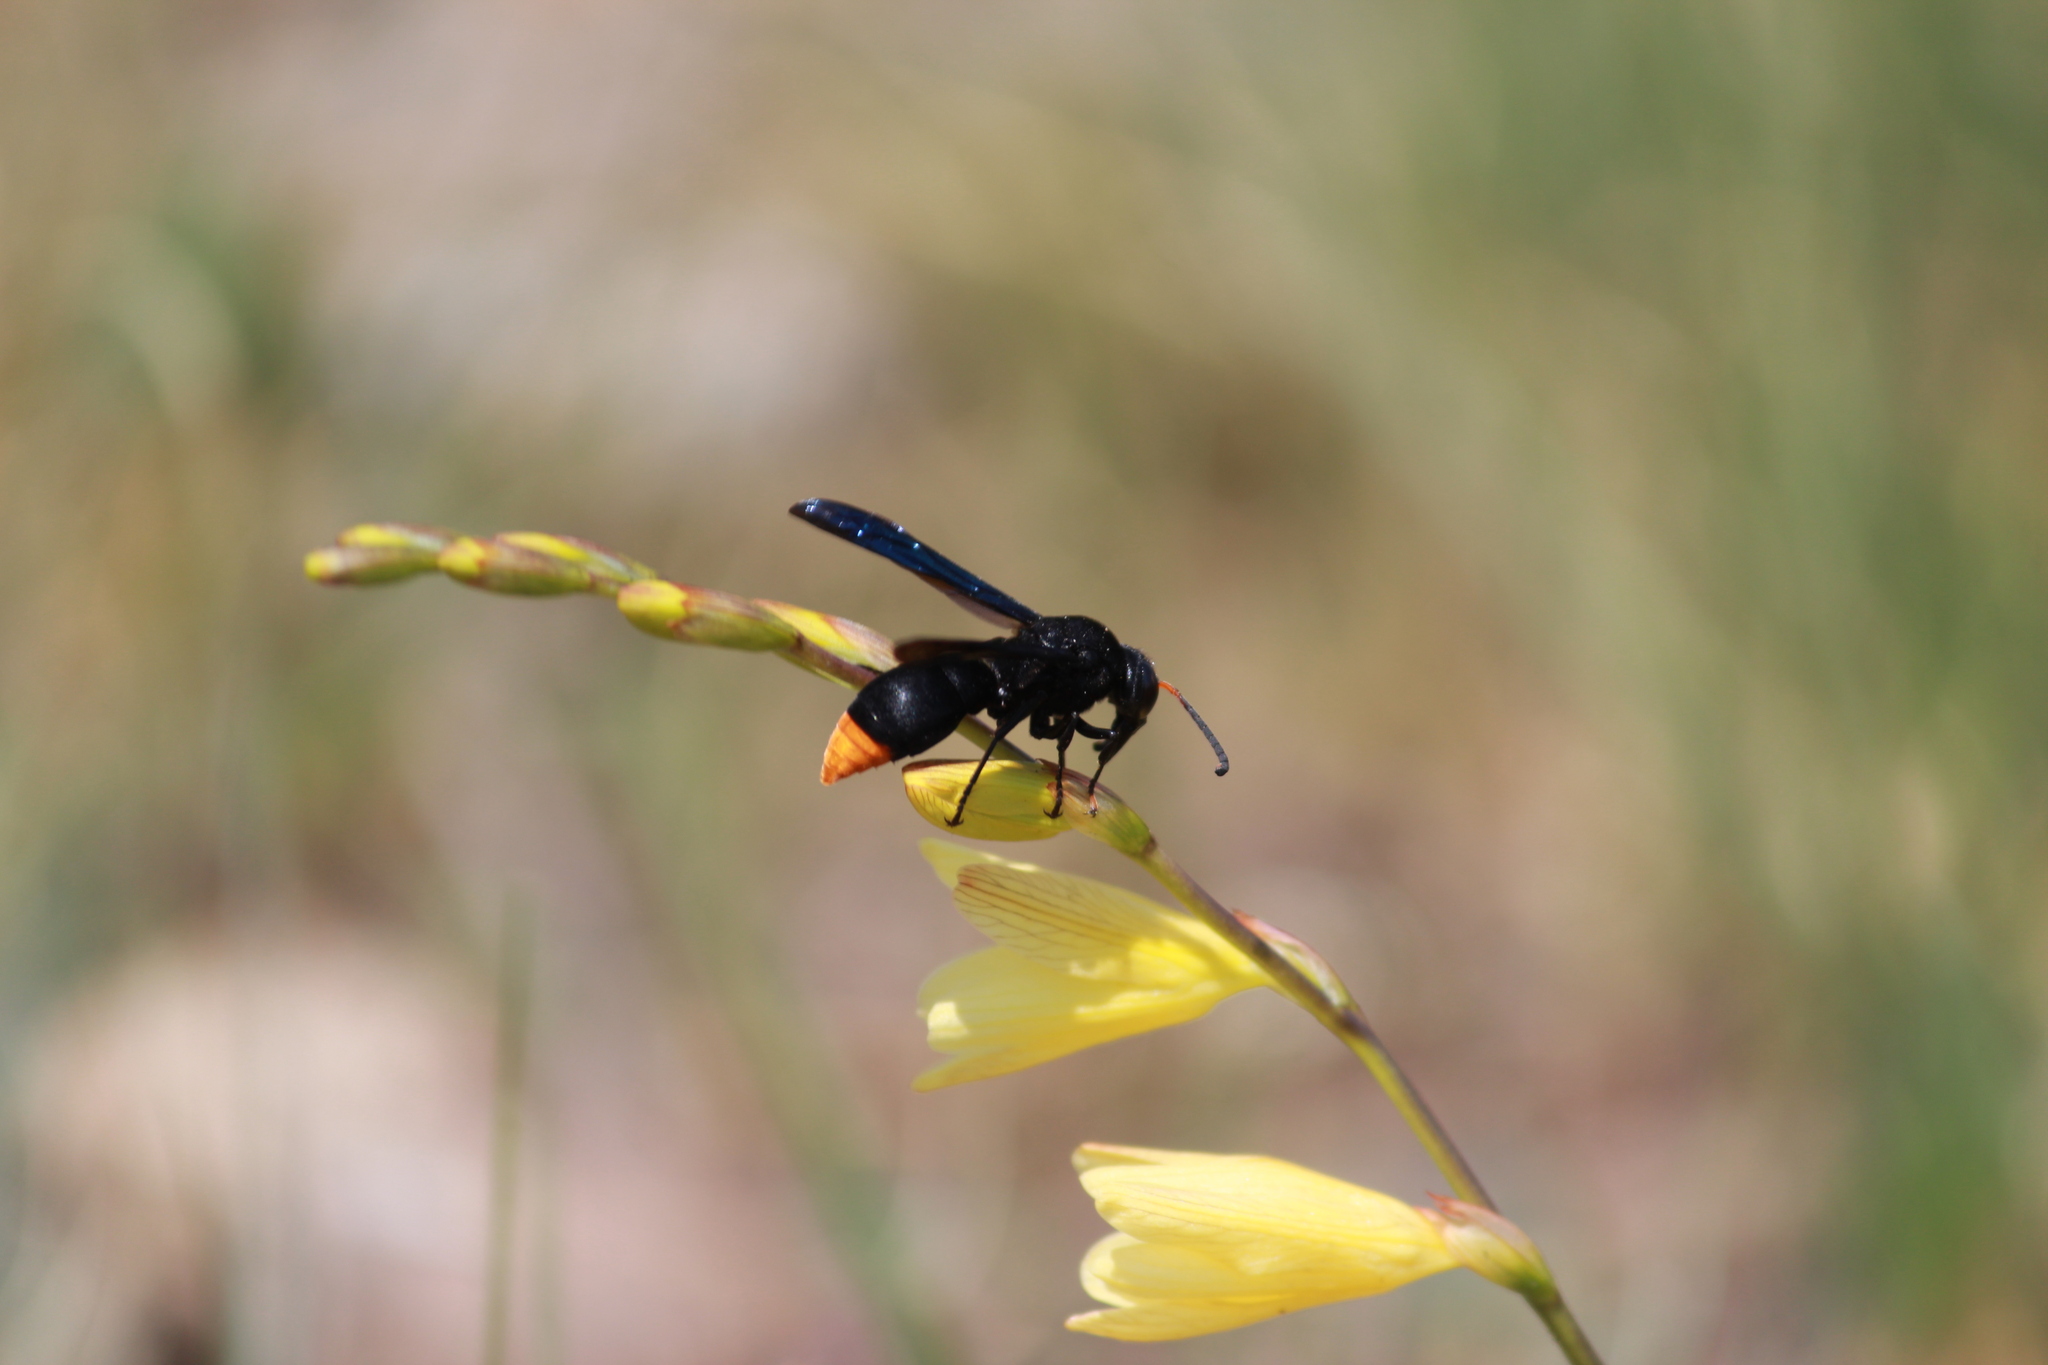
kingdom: Animalia
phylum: Arthropoda
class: Insecta
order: Hymenoptera
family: Vespidae
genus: Synagris
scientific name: Synagris
